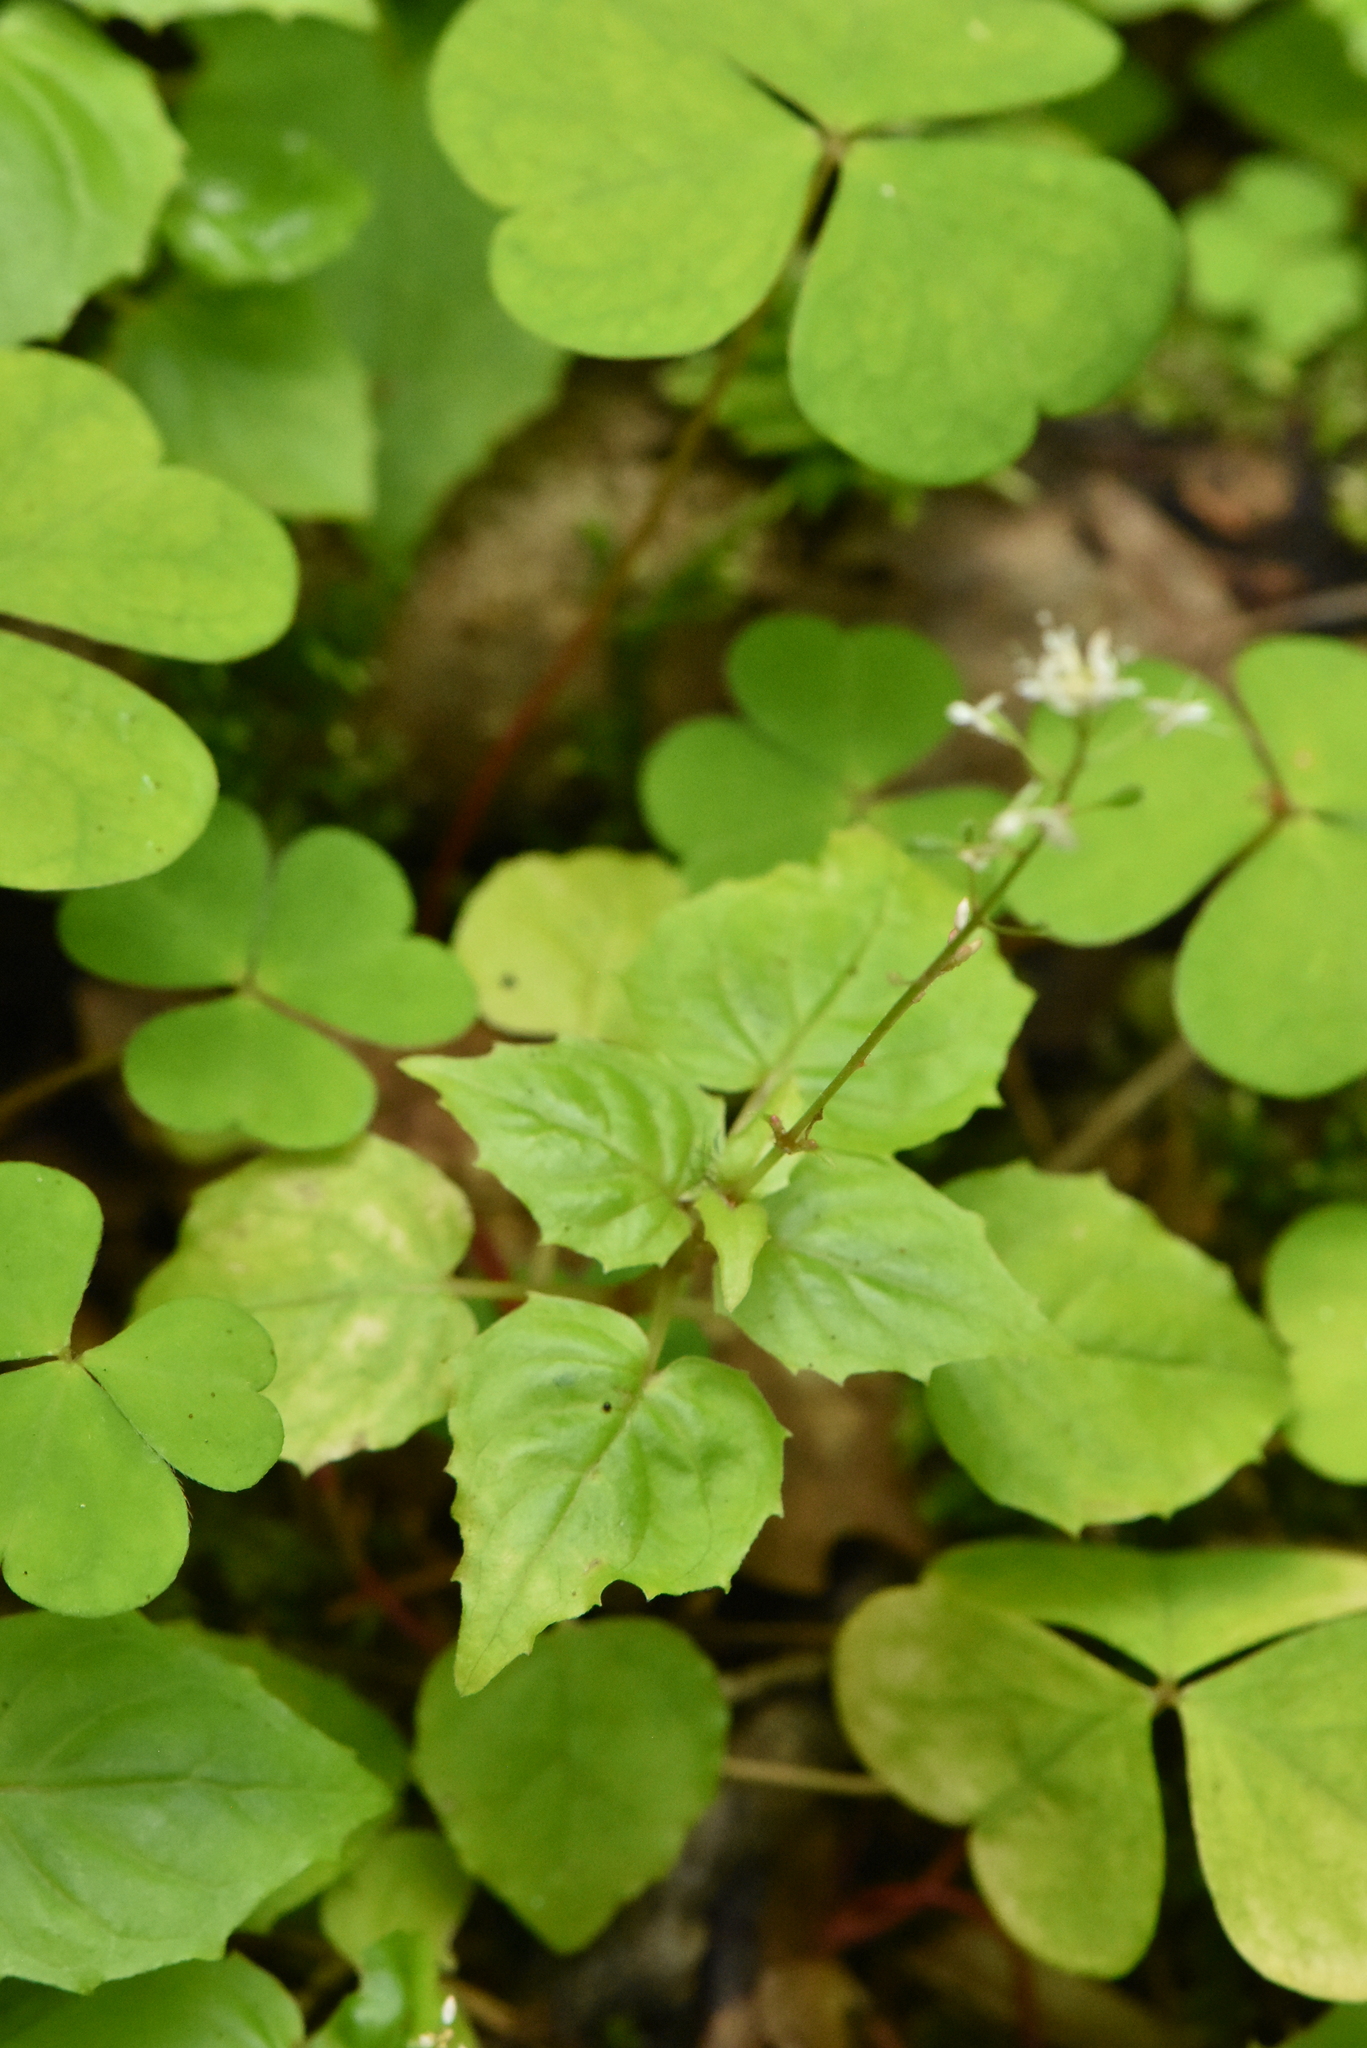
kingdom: Plantae
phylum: Tracheophyta
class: Magnoliopsida
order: Myrtales
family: Onagraceae
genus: Circaea
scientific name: Circaea alpina
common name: Alpine enchanter's-nightshade
